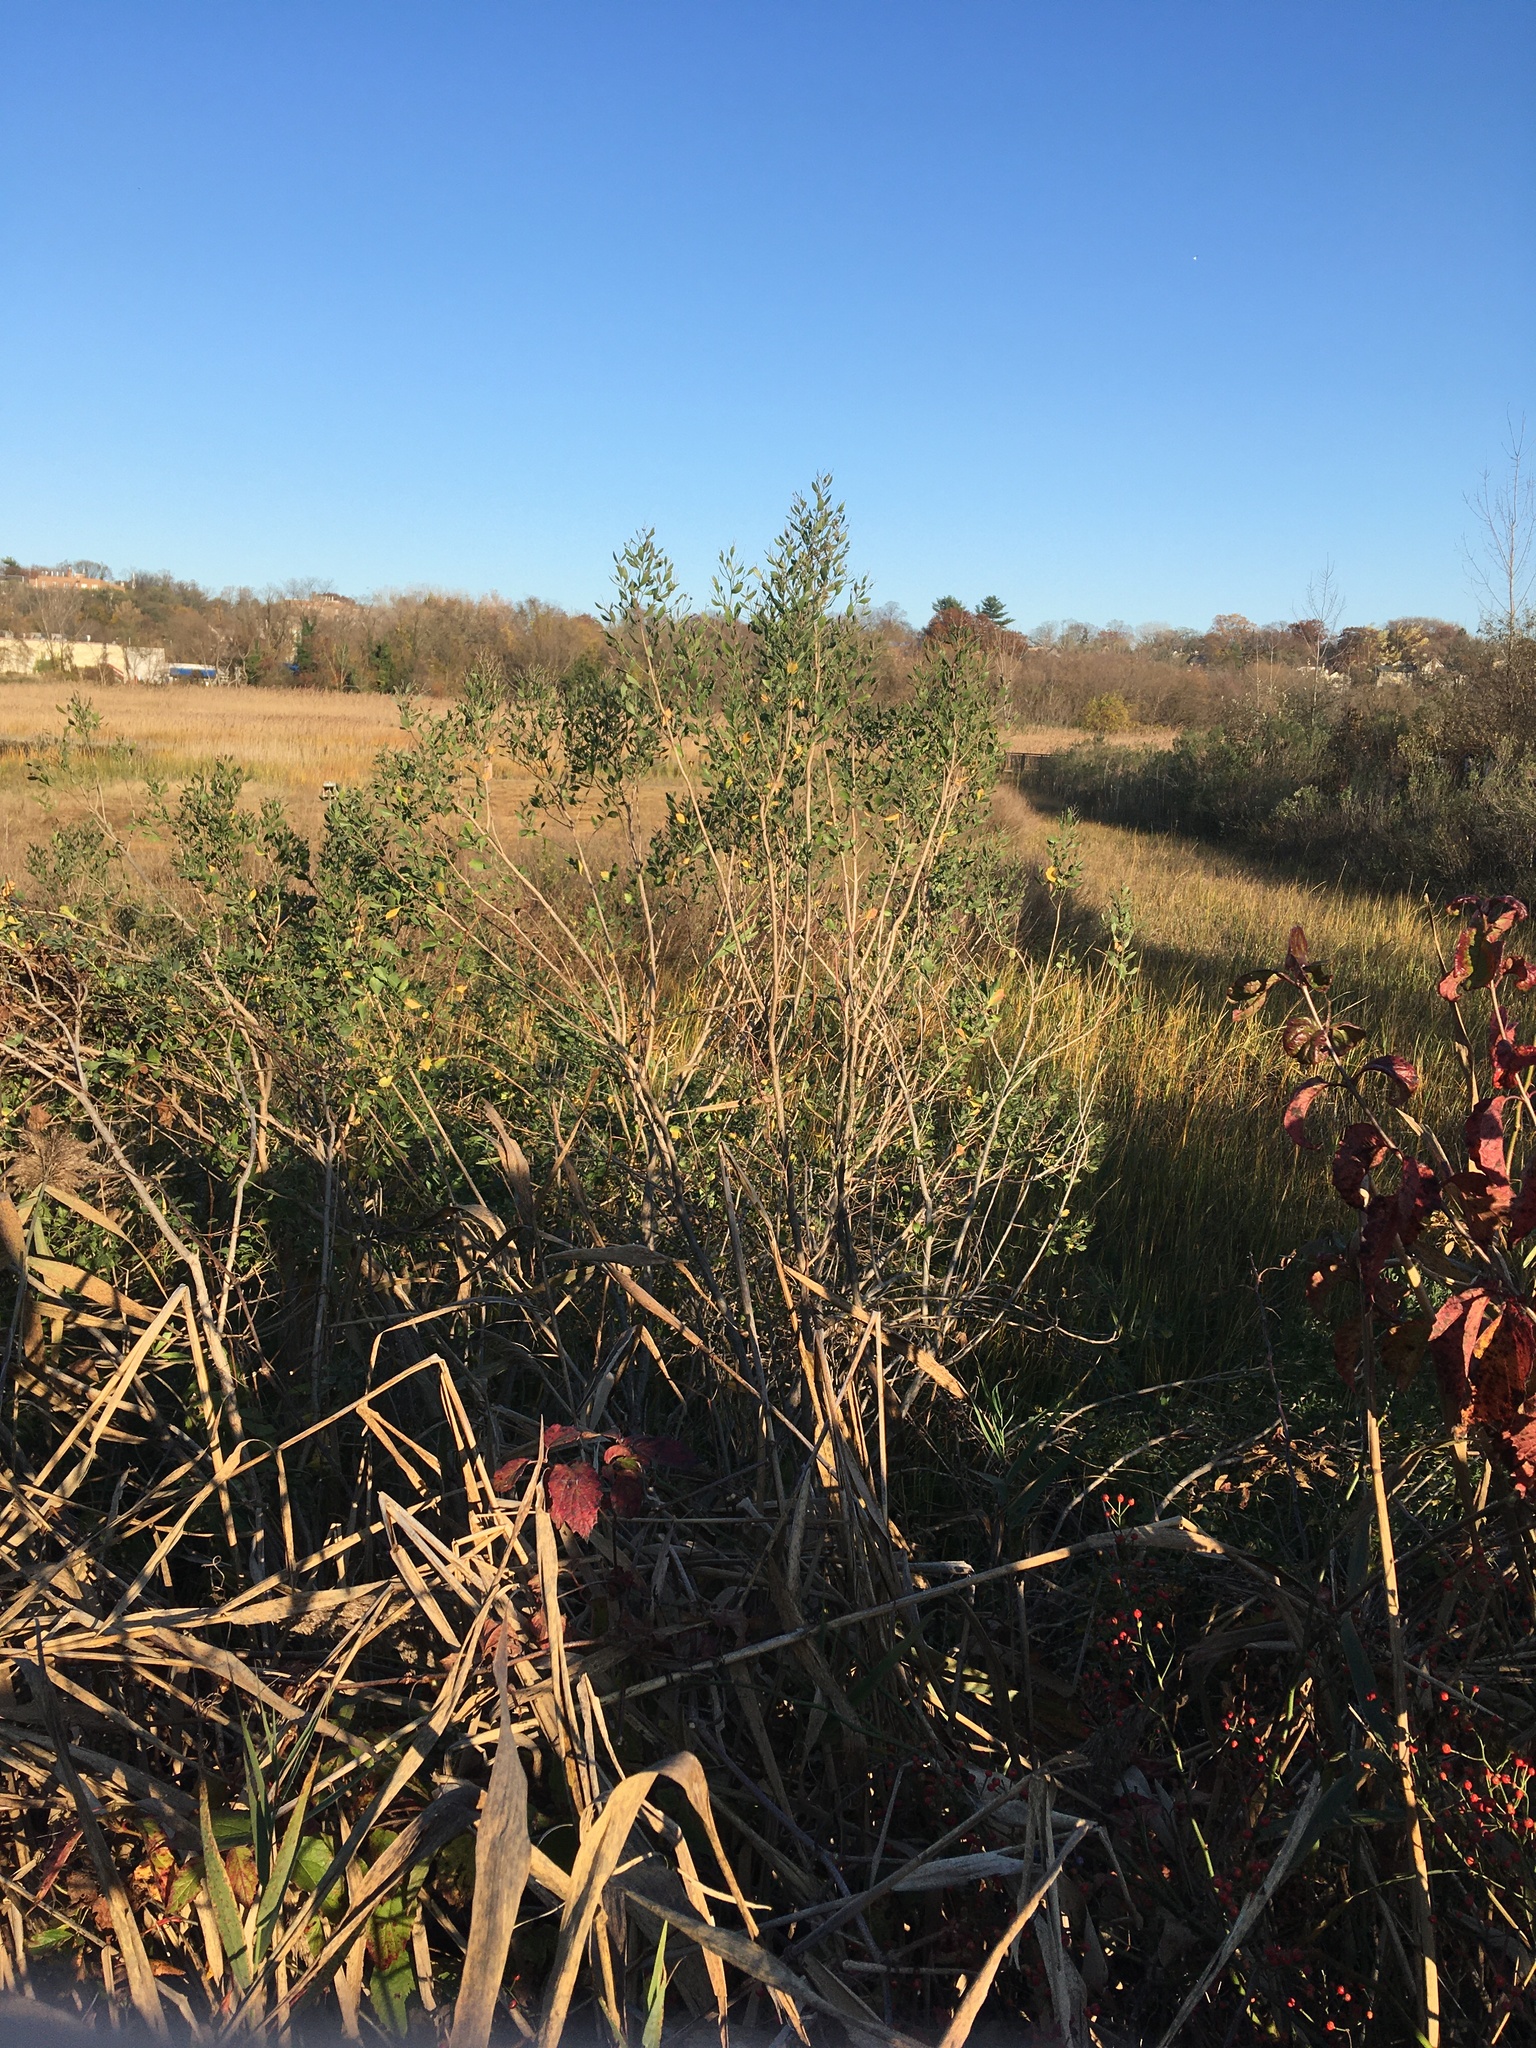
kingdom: Plantae
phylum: Tracheophyta
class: Magnoliopsida
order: Asterales
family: Asteraceae
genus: Baccharis
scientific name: Baccharis halimifolia
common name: Eastern baccharis
